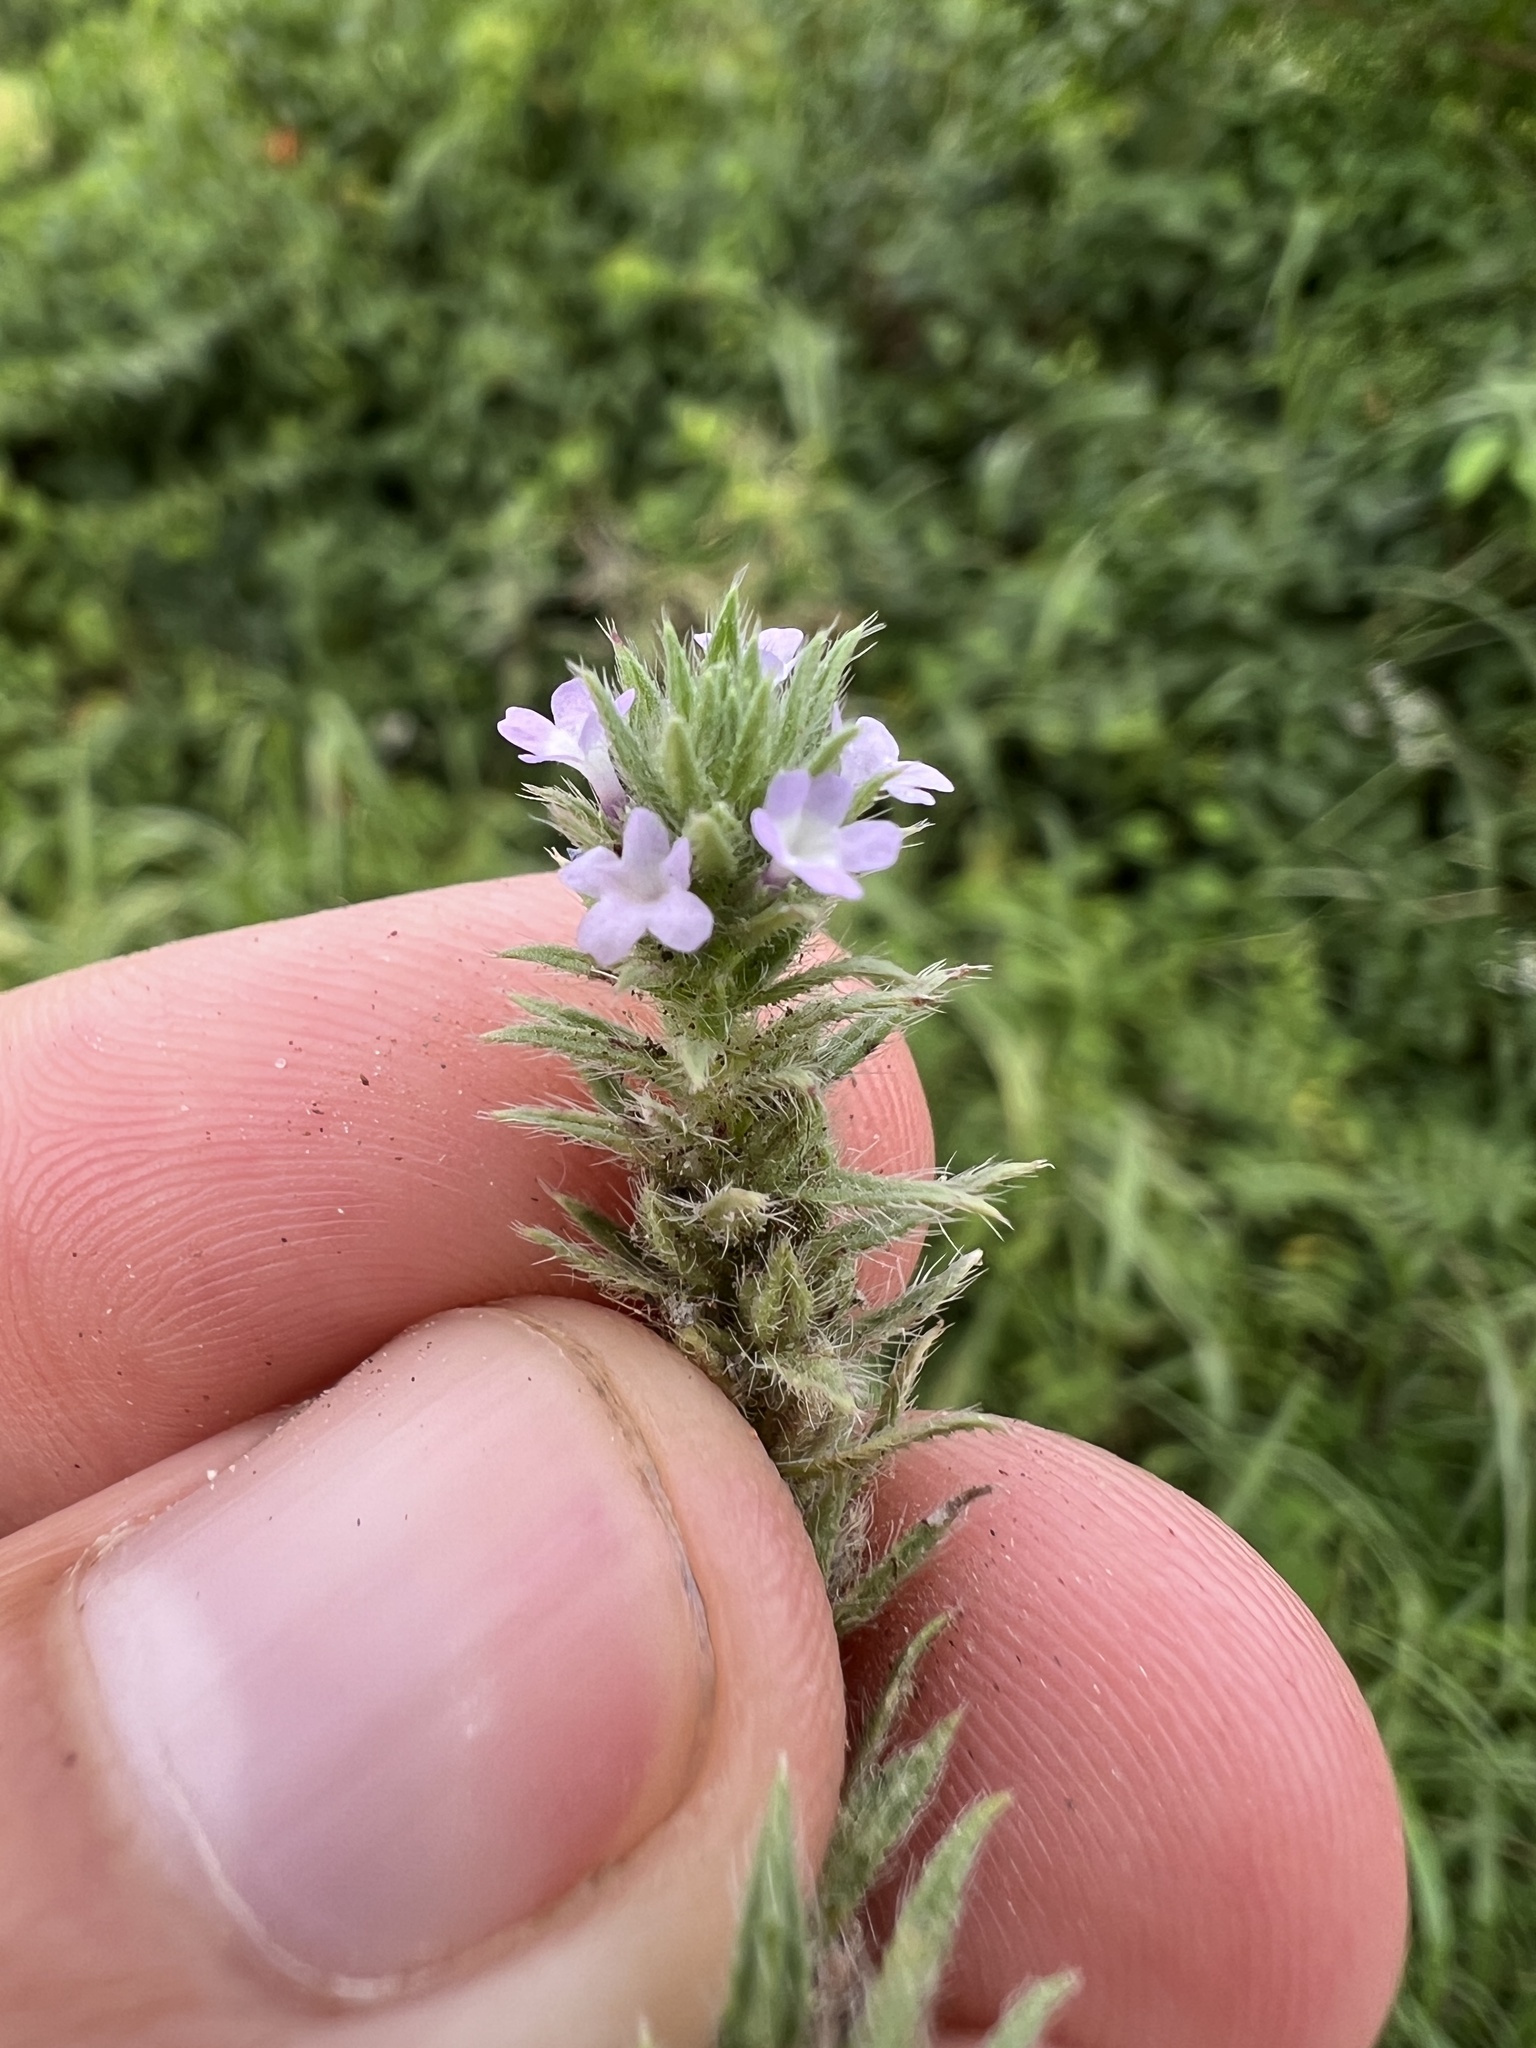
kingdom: Plantae
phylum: Tracheophyta
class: Magnoliopsida
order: Lamiales
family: Verbenaceae
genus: Verbena
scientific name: Verbena bracteata
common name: Bracted vervain
